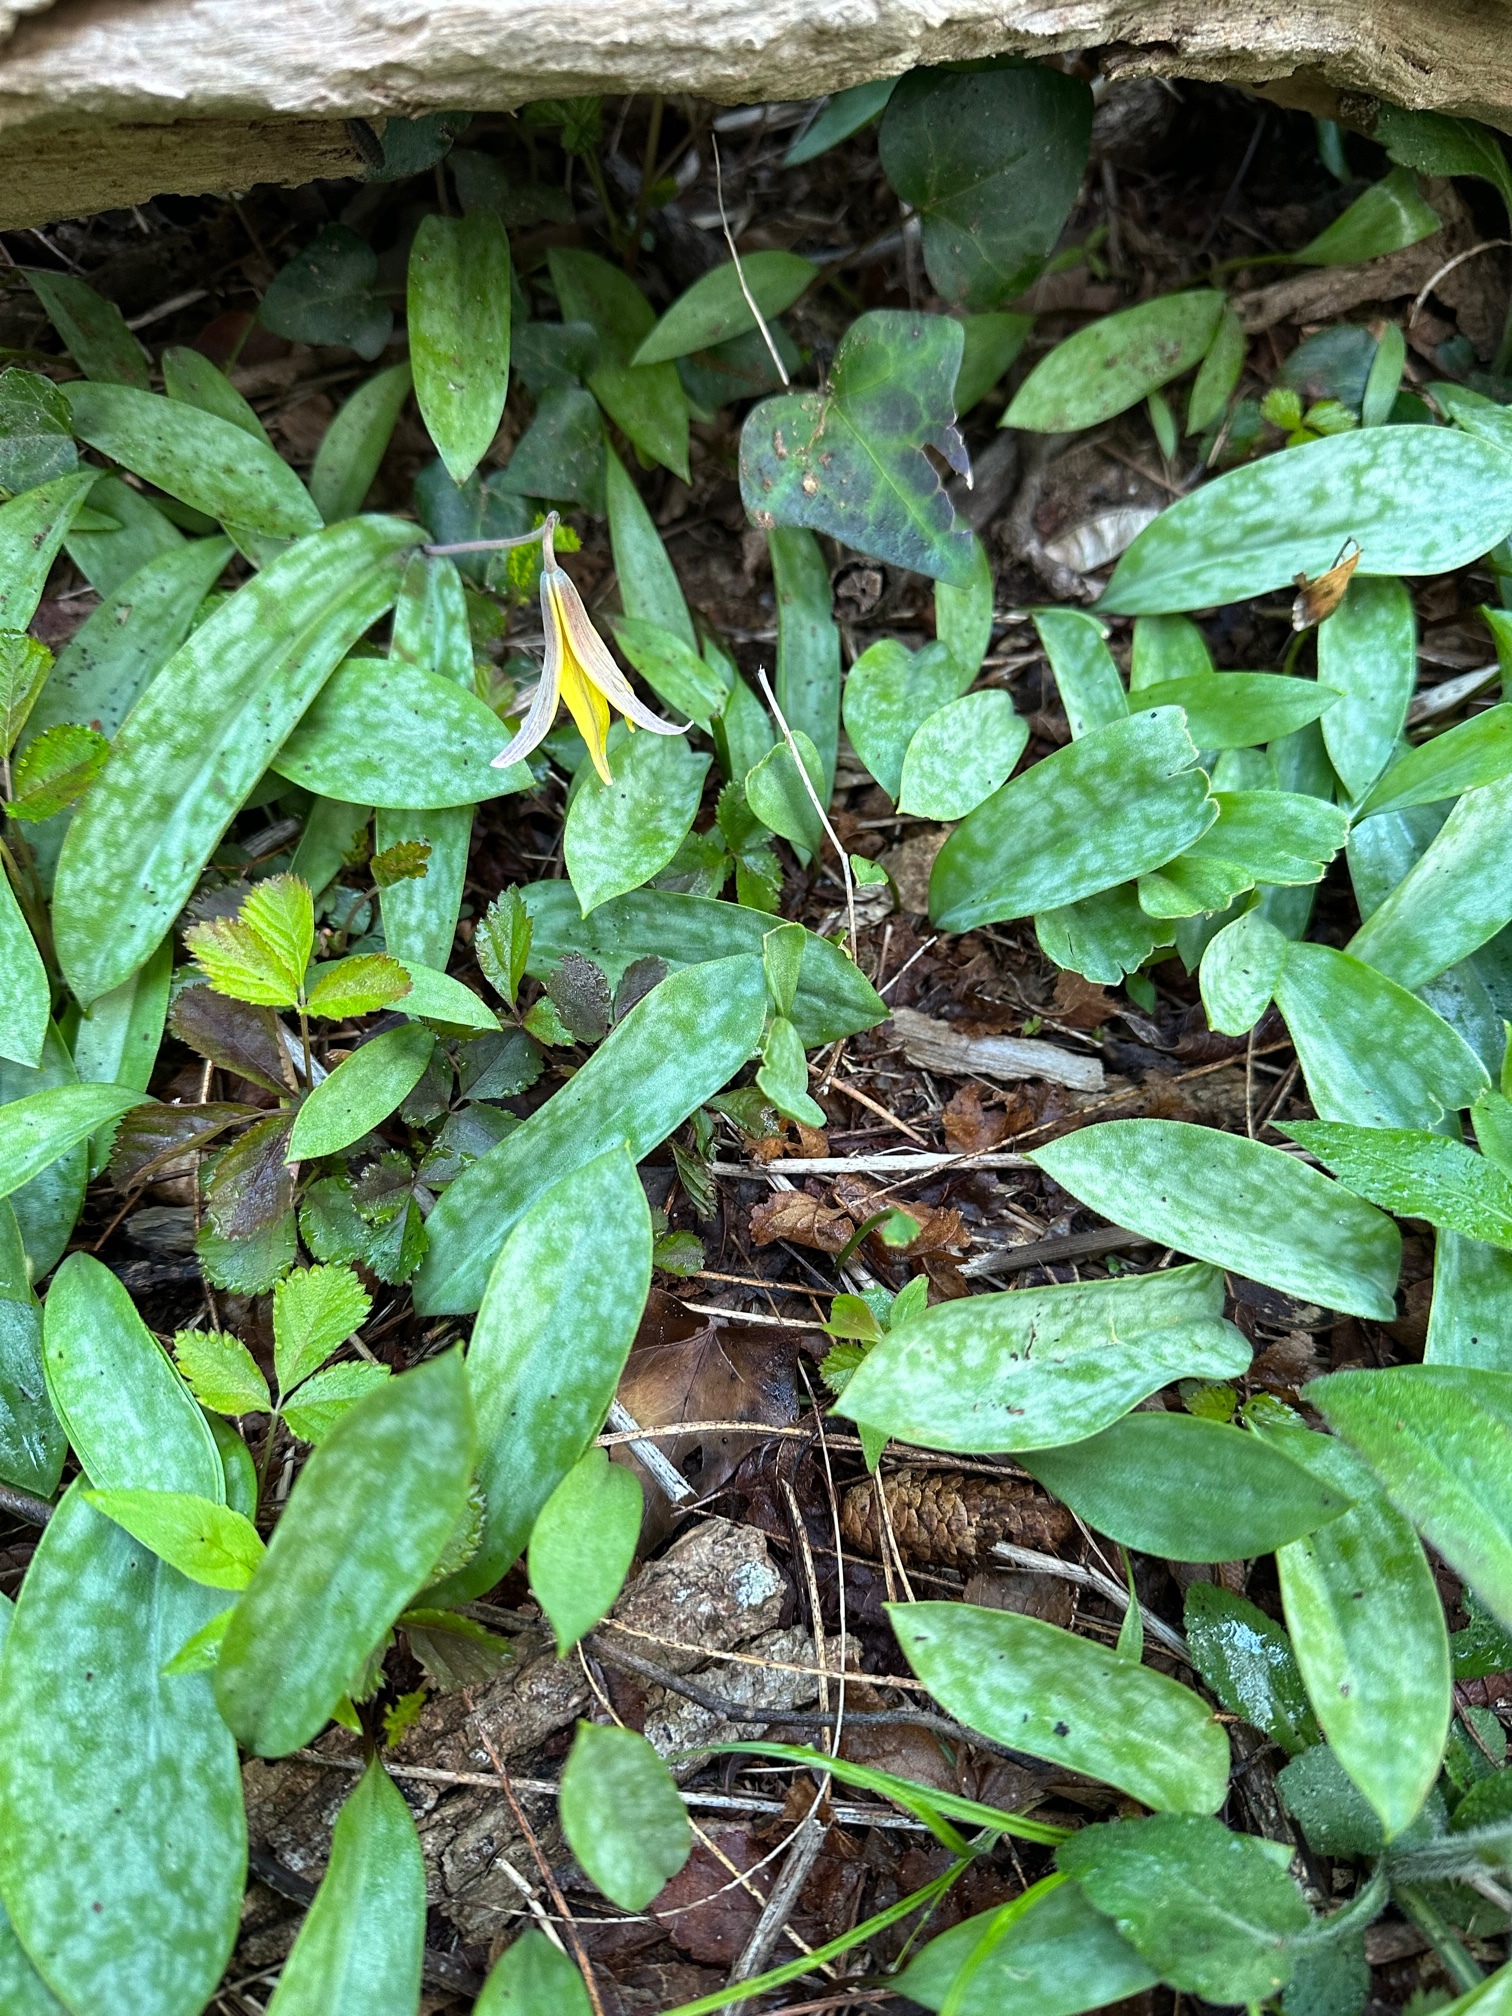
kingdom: Plantae
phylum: Tracheophyta
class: Liliopsida
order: Liliales
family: Liliaceae
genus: Erythronium
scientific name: Erythronium americanum
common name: Yellow adder's-tongue
